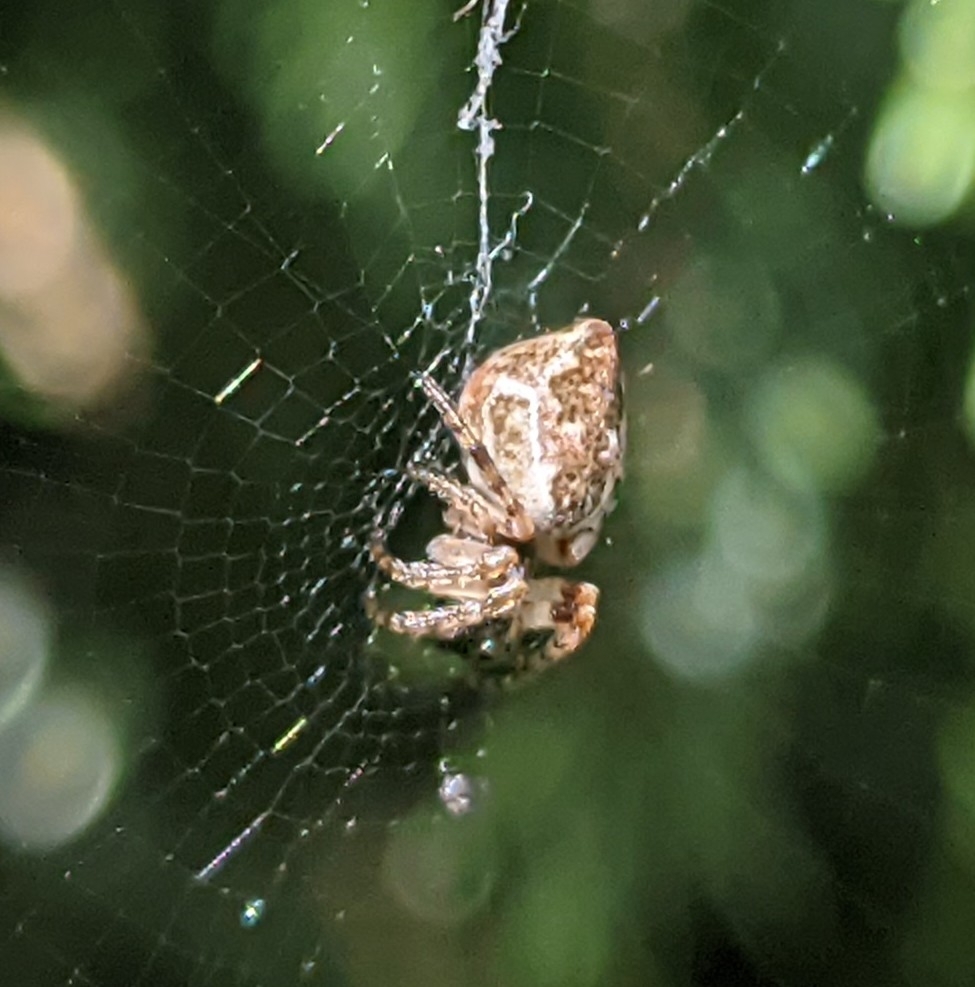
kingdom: Animalia
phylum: Arthropoda
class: Arachnida
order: Araneae
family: Araneidae
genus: Cyclosa
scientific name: Cyclosa conica
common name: Conical trashline orbweaver
